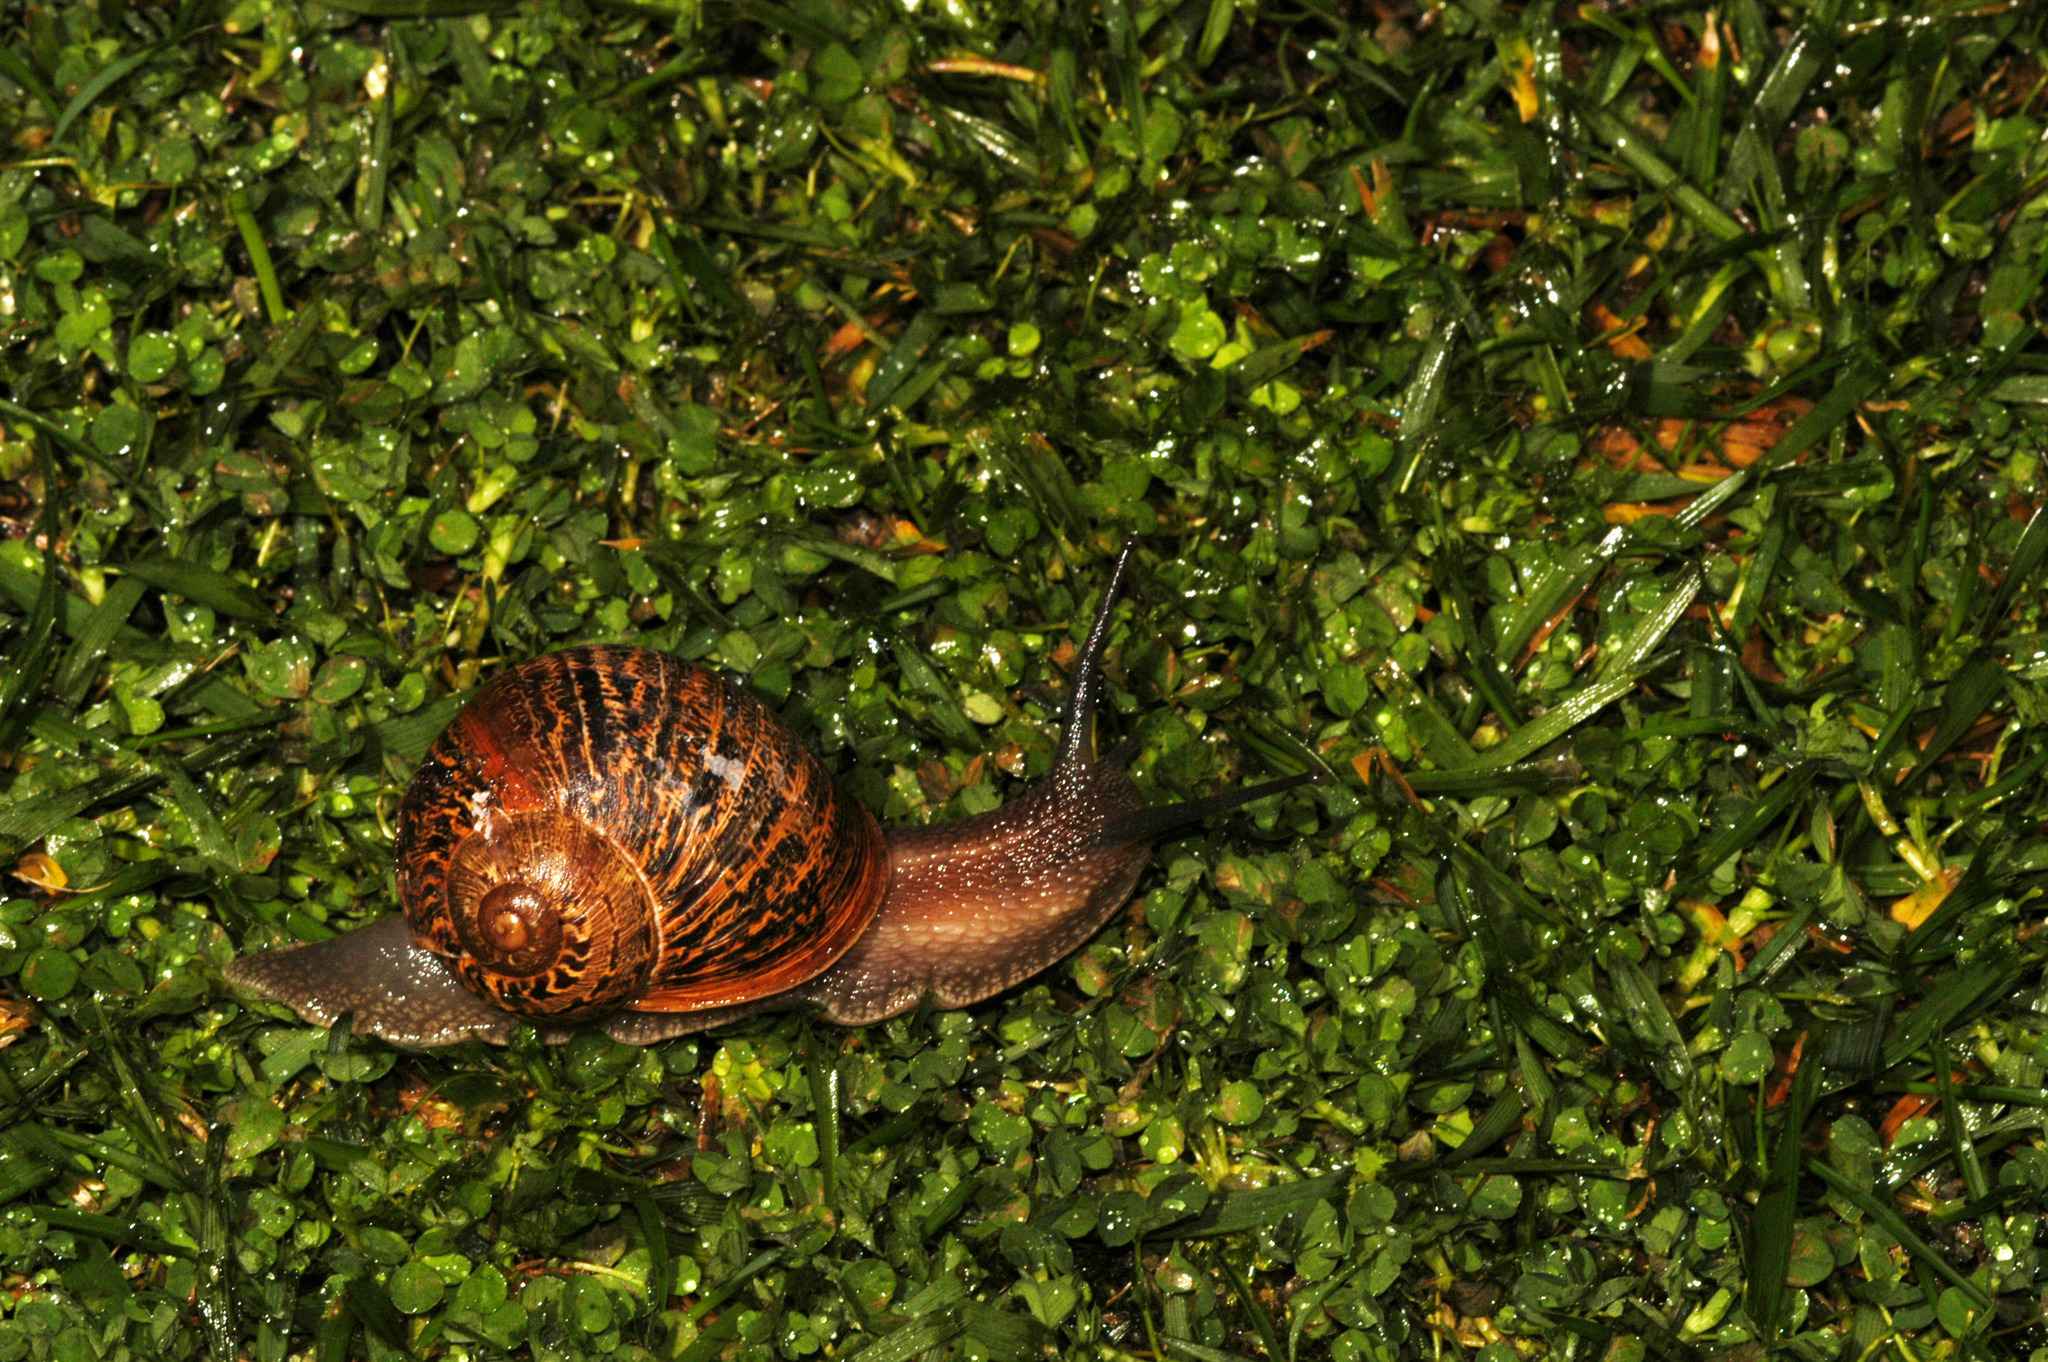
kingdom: Animalia
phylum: Mollusca
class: Gastropoda
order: Stylommatophora
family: Helicidae
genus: Cornu
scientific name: Cornu aspersum
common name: Brown garden snail
